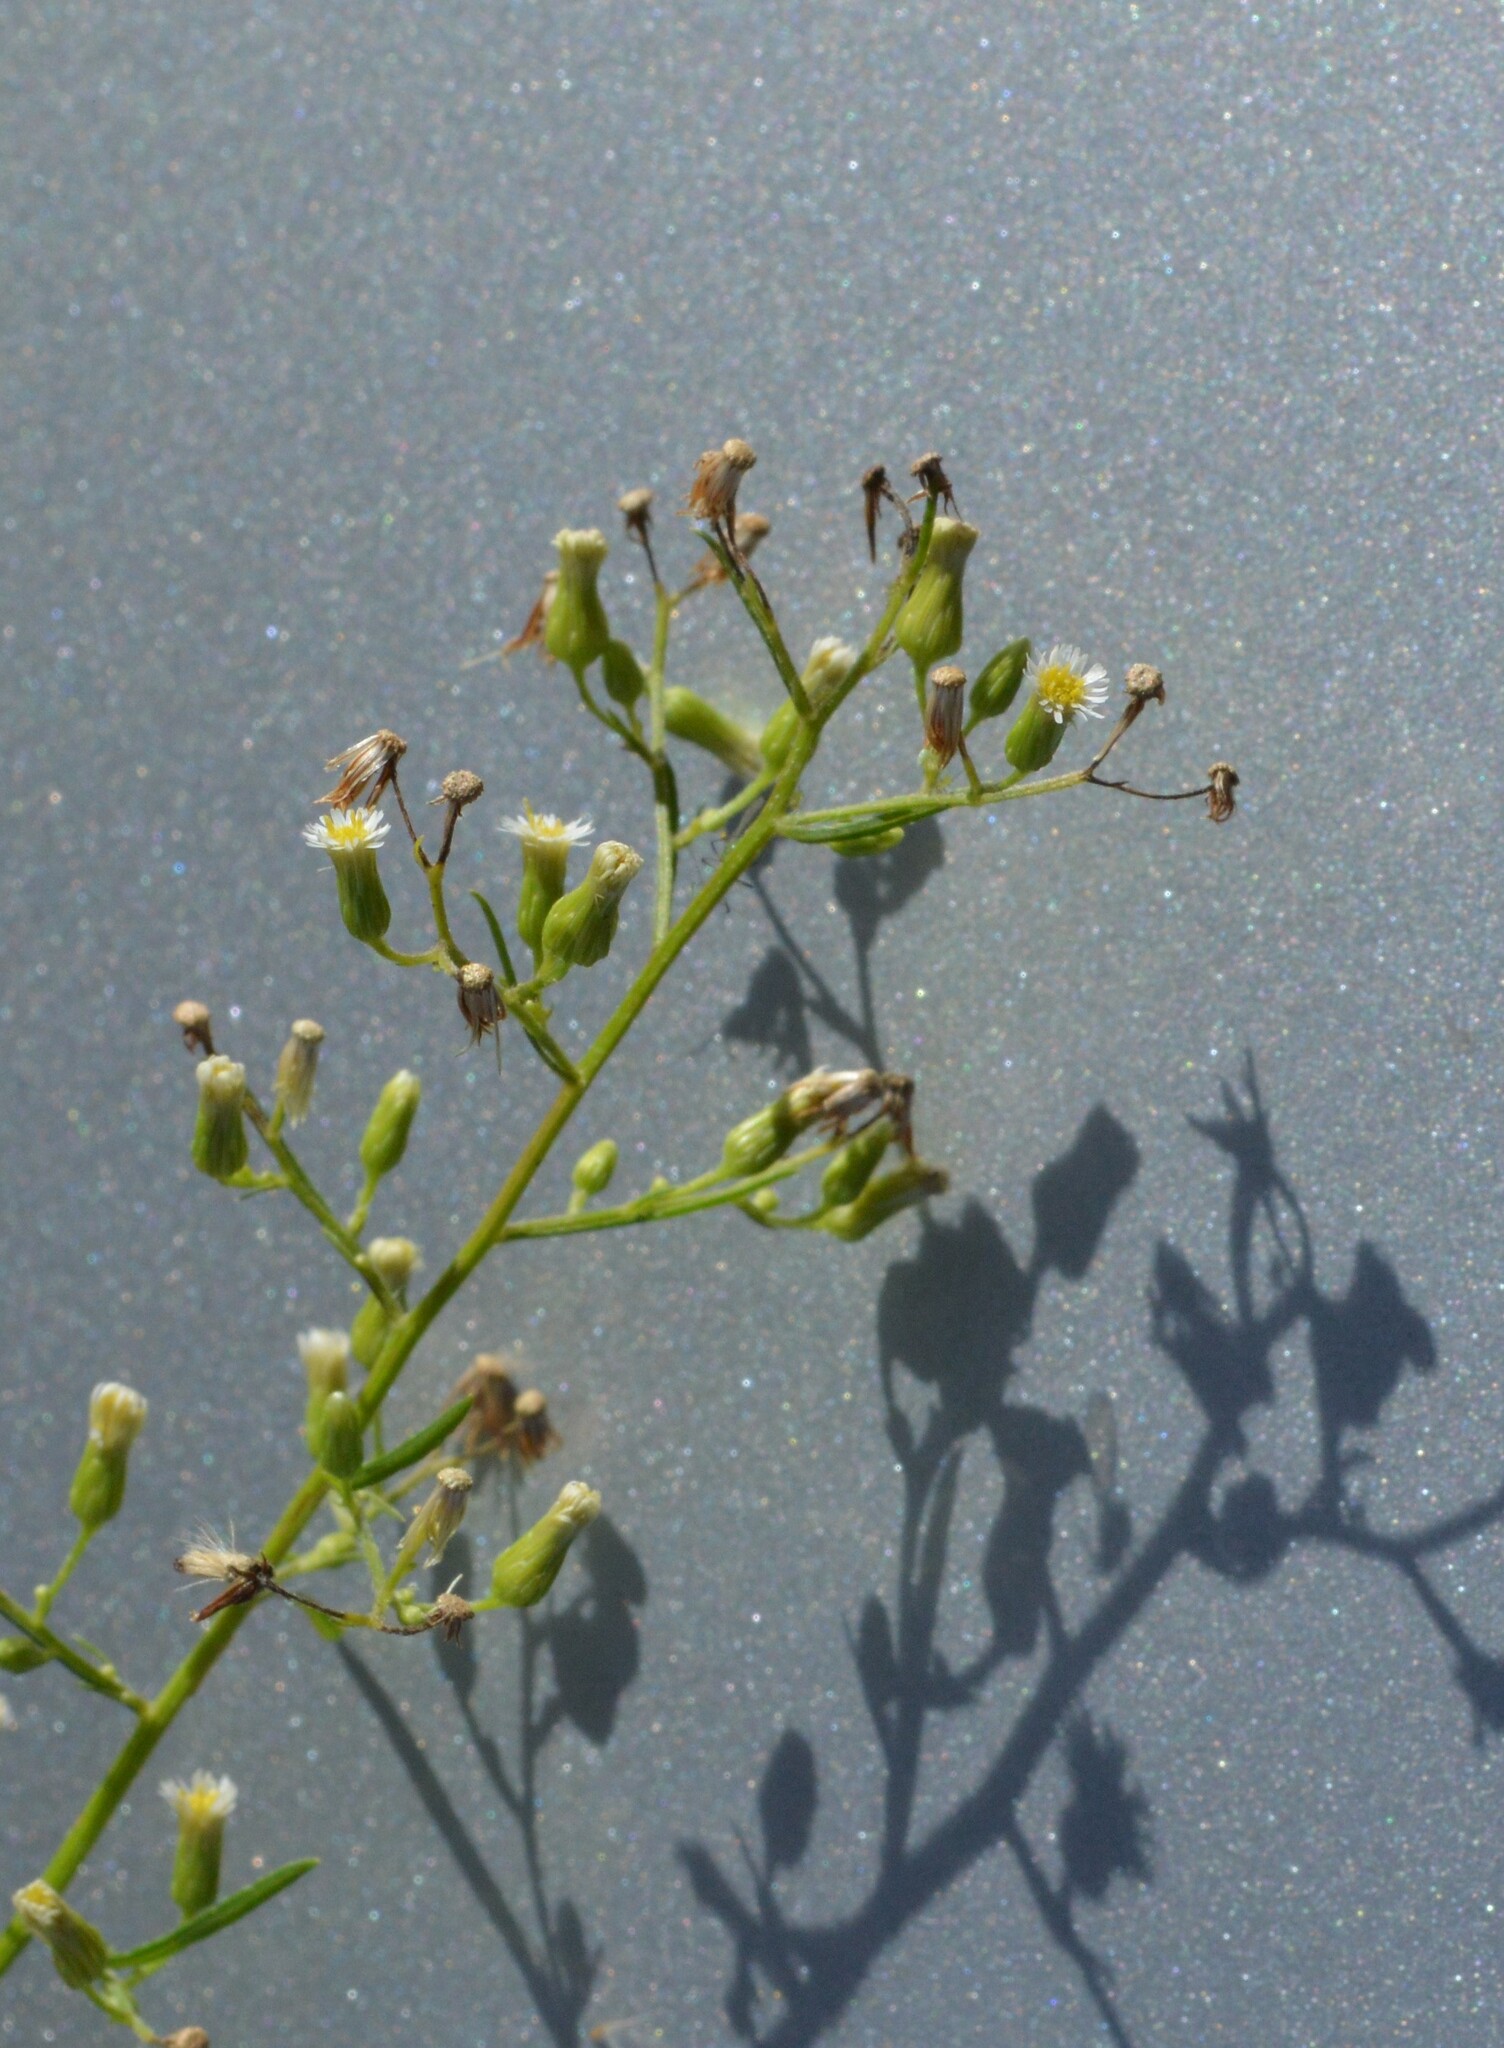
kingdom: Plantae
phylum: Tracheophyta
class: Magnoliopsida
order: Asterales
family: Asteraceae
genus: Erigeron
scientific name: Erigeron canadensis
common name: Canadian fleabane
